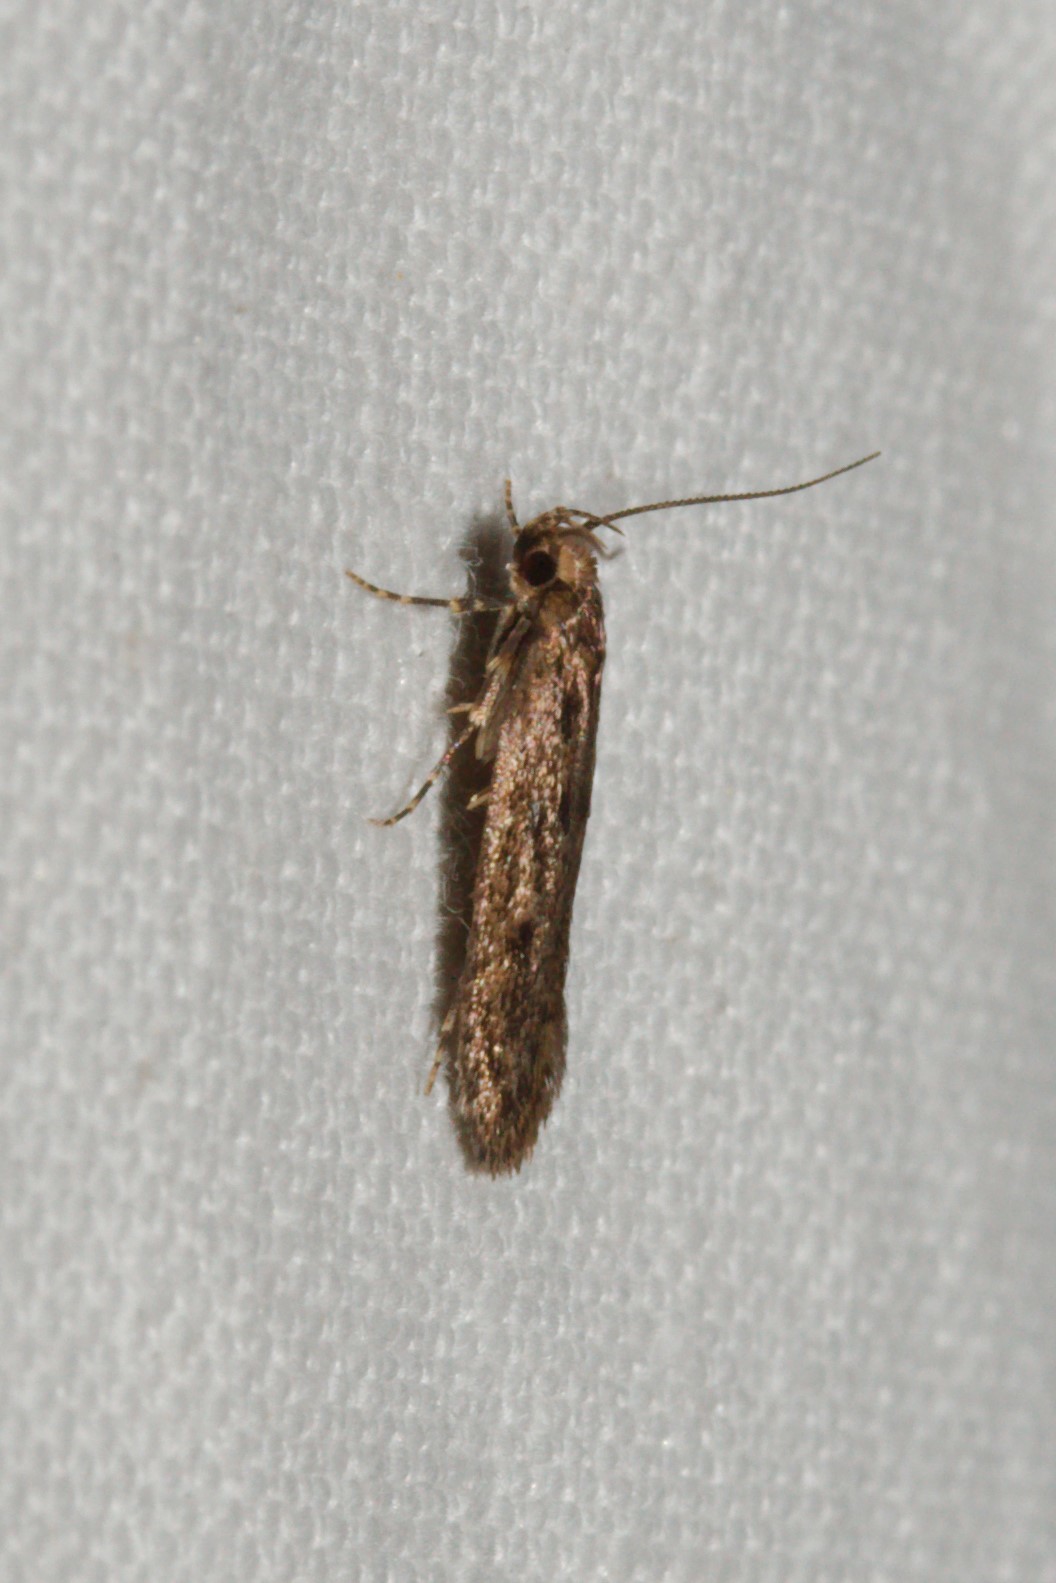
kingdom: Animalia
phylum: Arthropoda
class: Insecta
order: Lepidoptera
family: Oecophoridae
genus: Hofmannophila
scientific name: Hofmannophila pseudospretella
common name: Brown house moth
